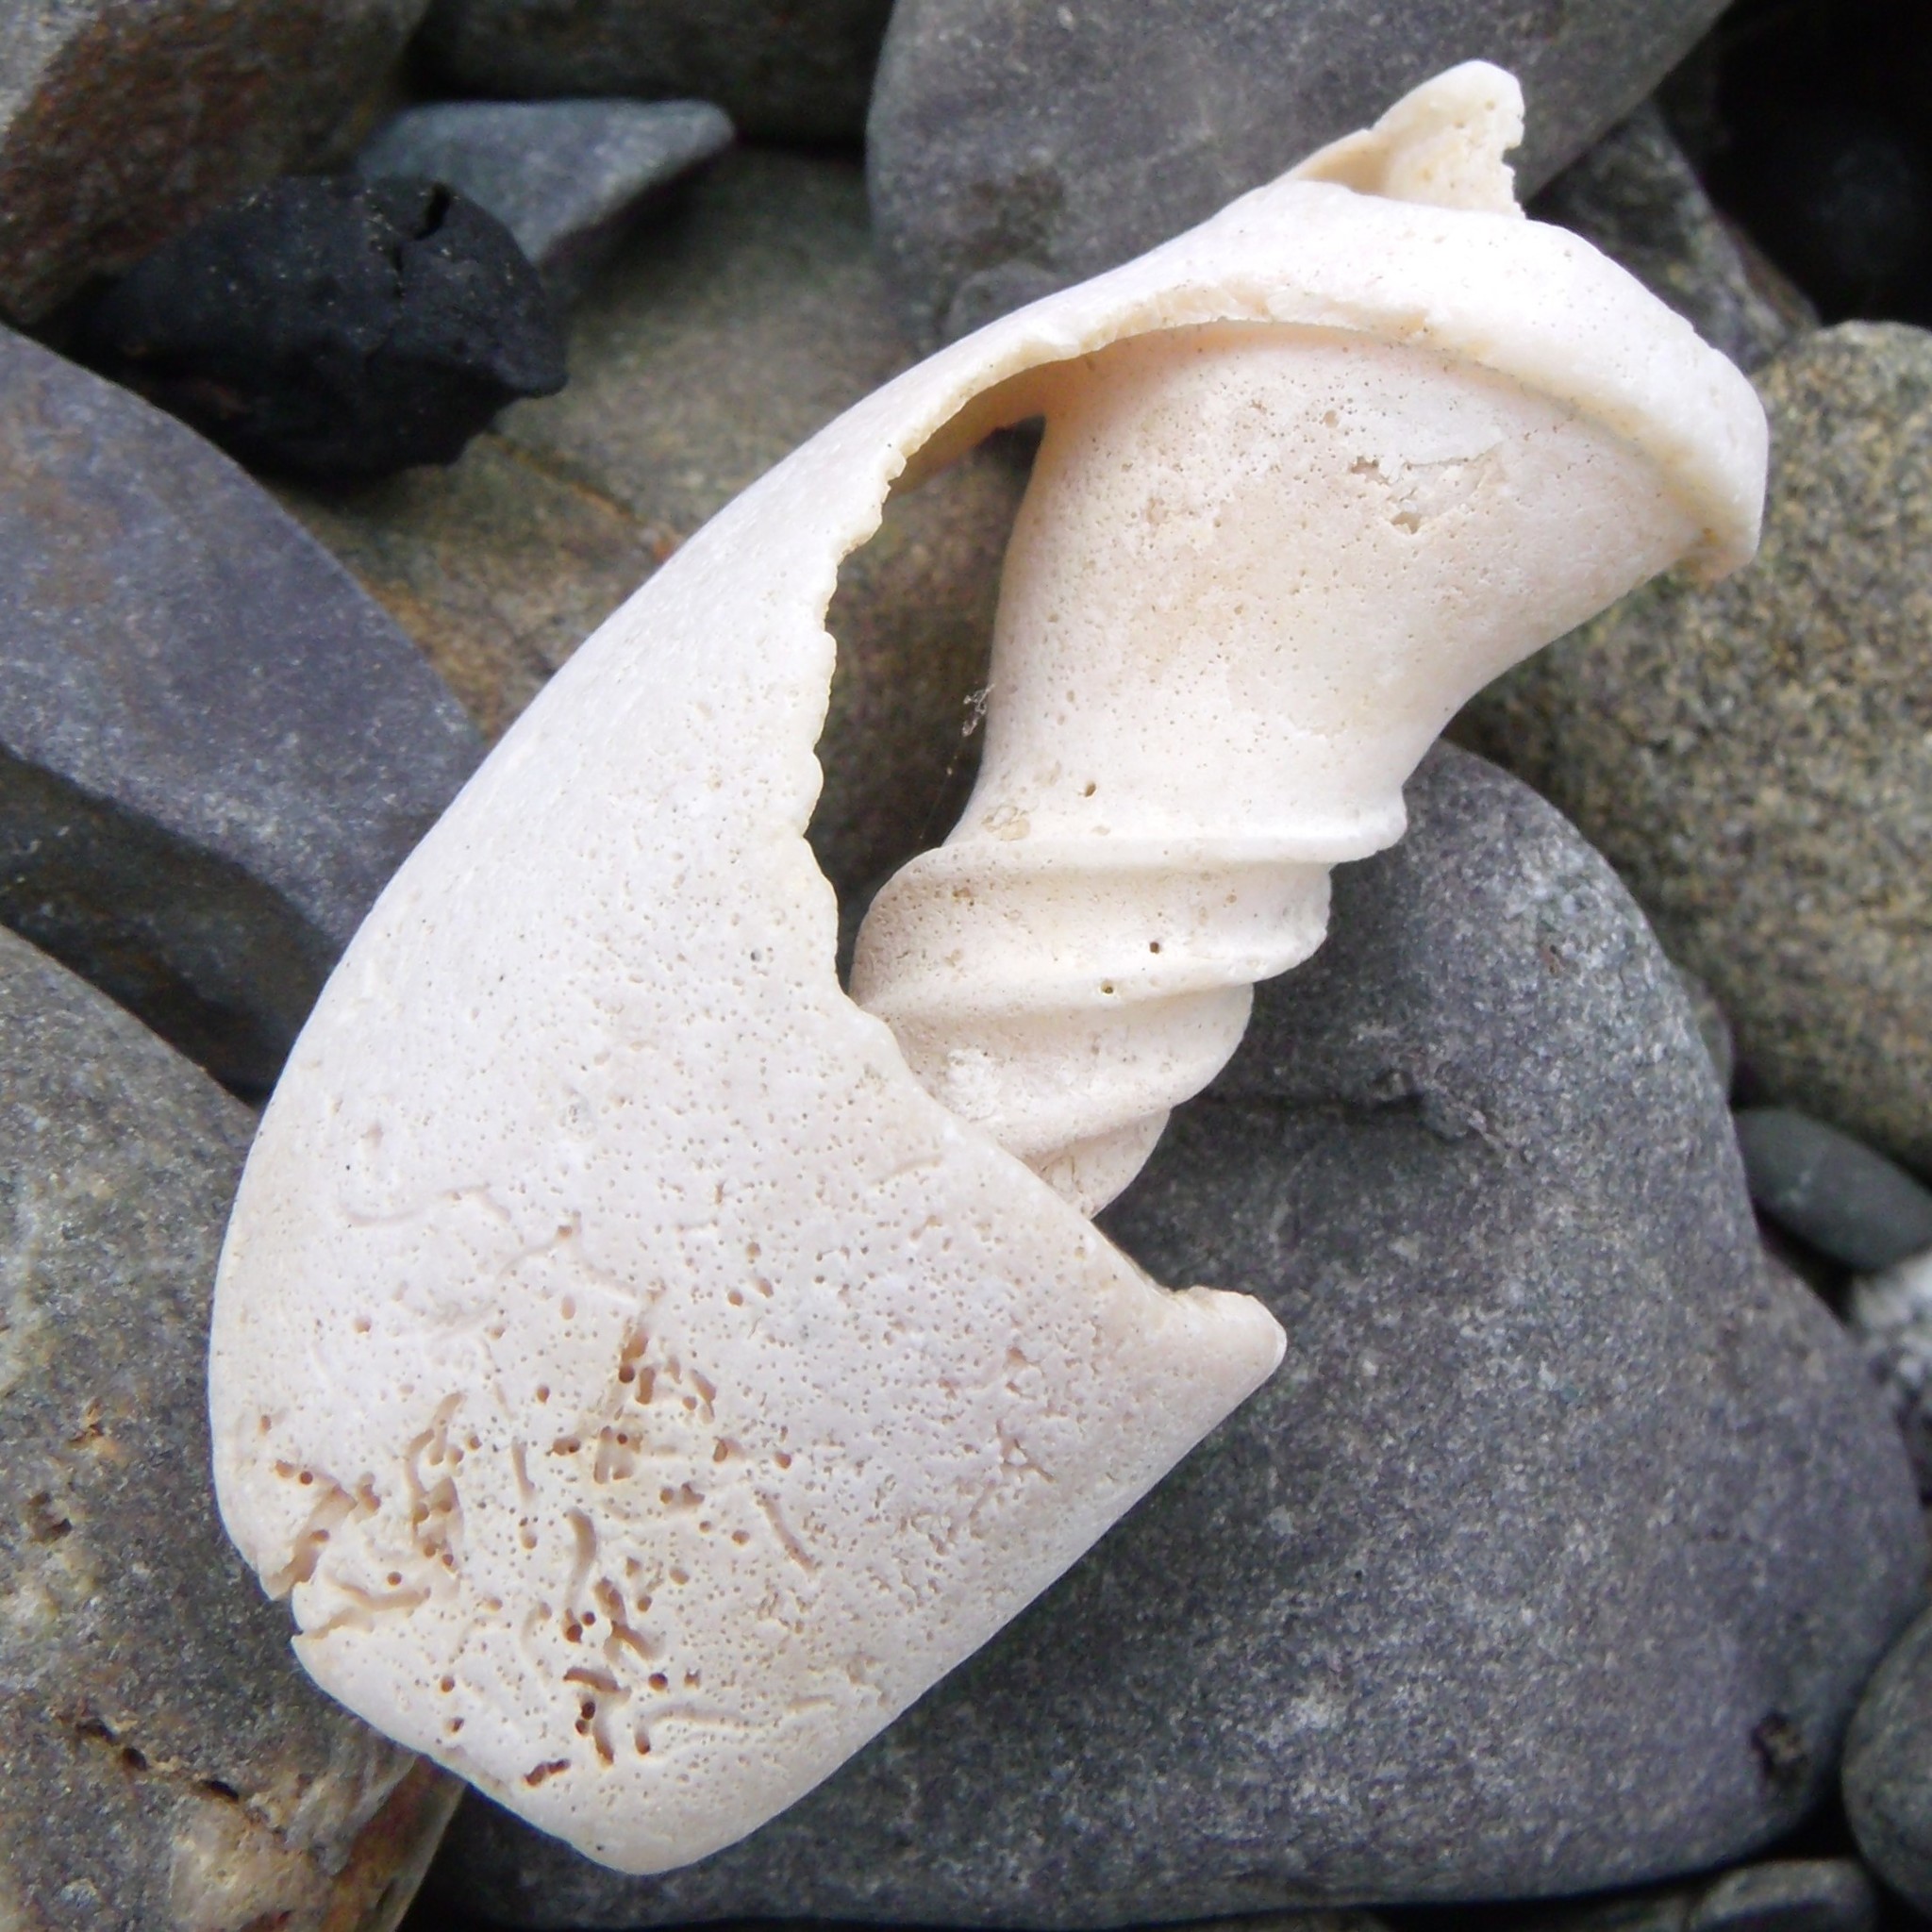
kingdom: Animalia
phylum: Mollusca
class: Gastropoda
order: Neogastropoda
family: Volutidae
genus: Alcithoe
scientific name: Alcithoe fusus
